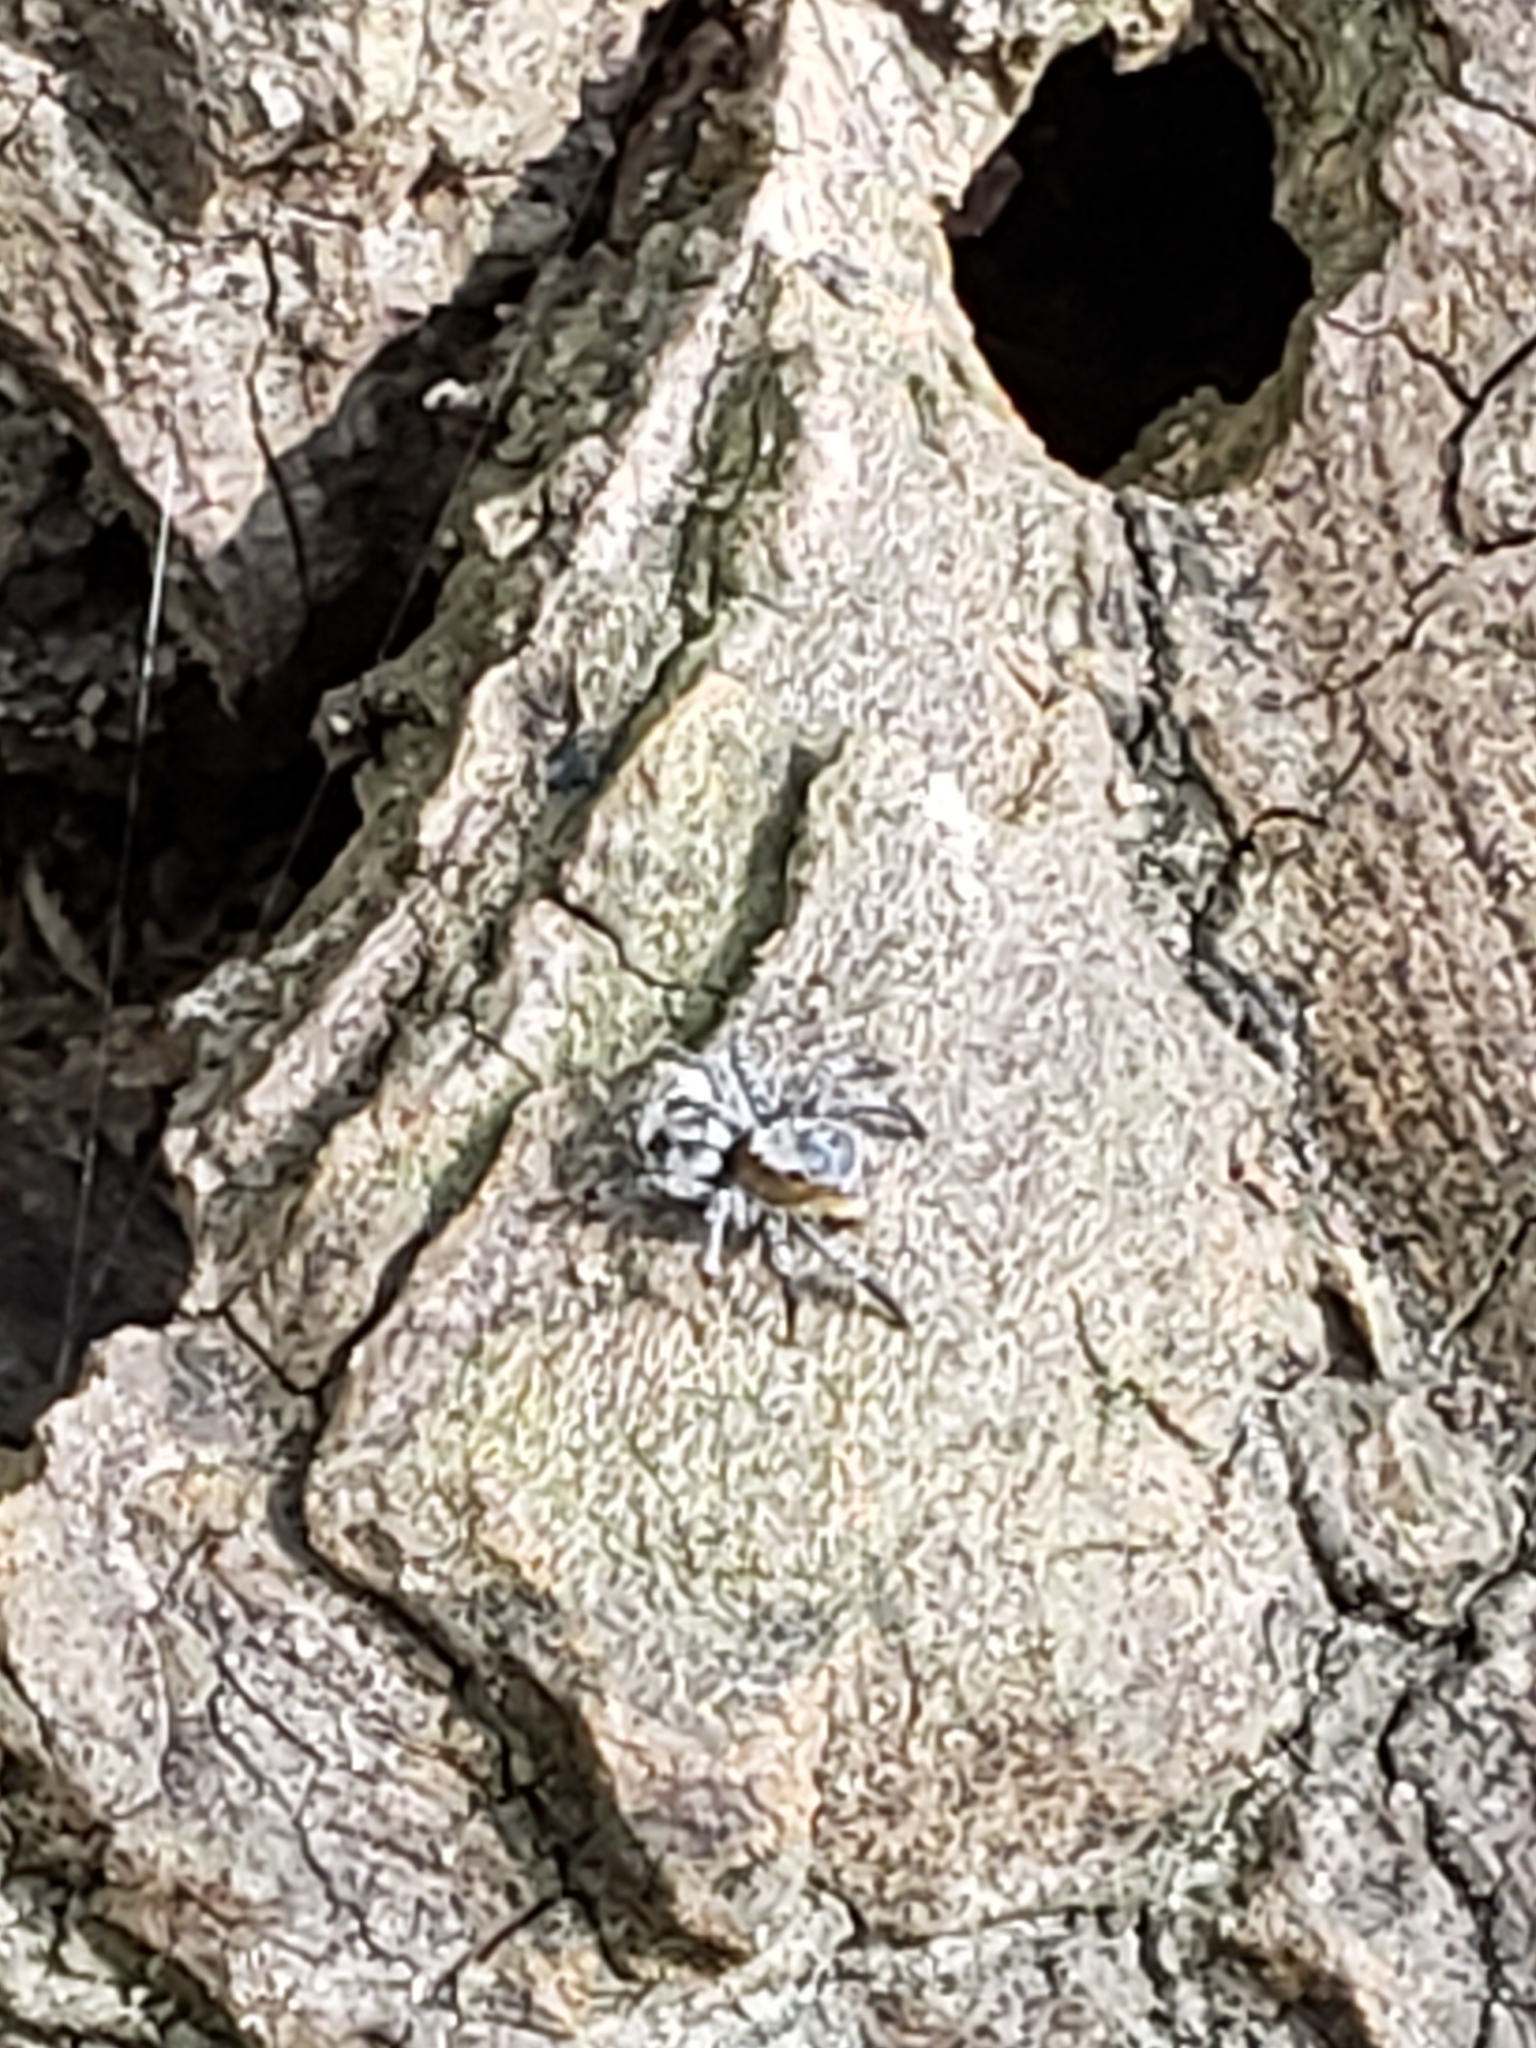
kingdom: Animalia
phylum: Arthropoda
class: Arachnida
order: Araneae
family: Salticidae
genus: Naphrys
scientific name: Naphrys pulex
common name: Flea jumping spider
